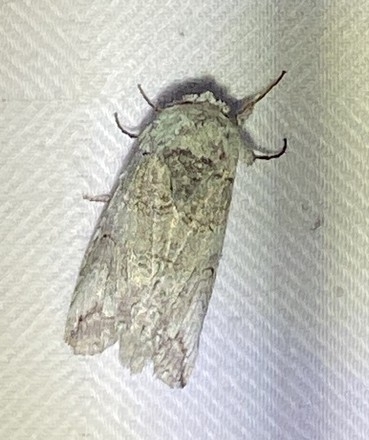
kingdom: Animalia
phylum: Arthropoda
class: Insecta
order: Lepidoptera
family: Notodontidae
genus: Heterocampa
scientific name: Heterocampa astartoides
